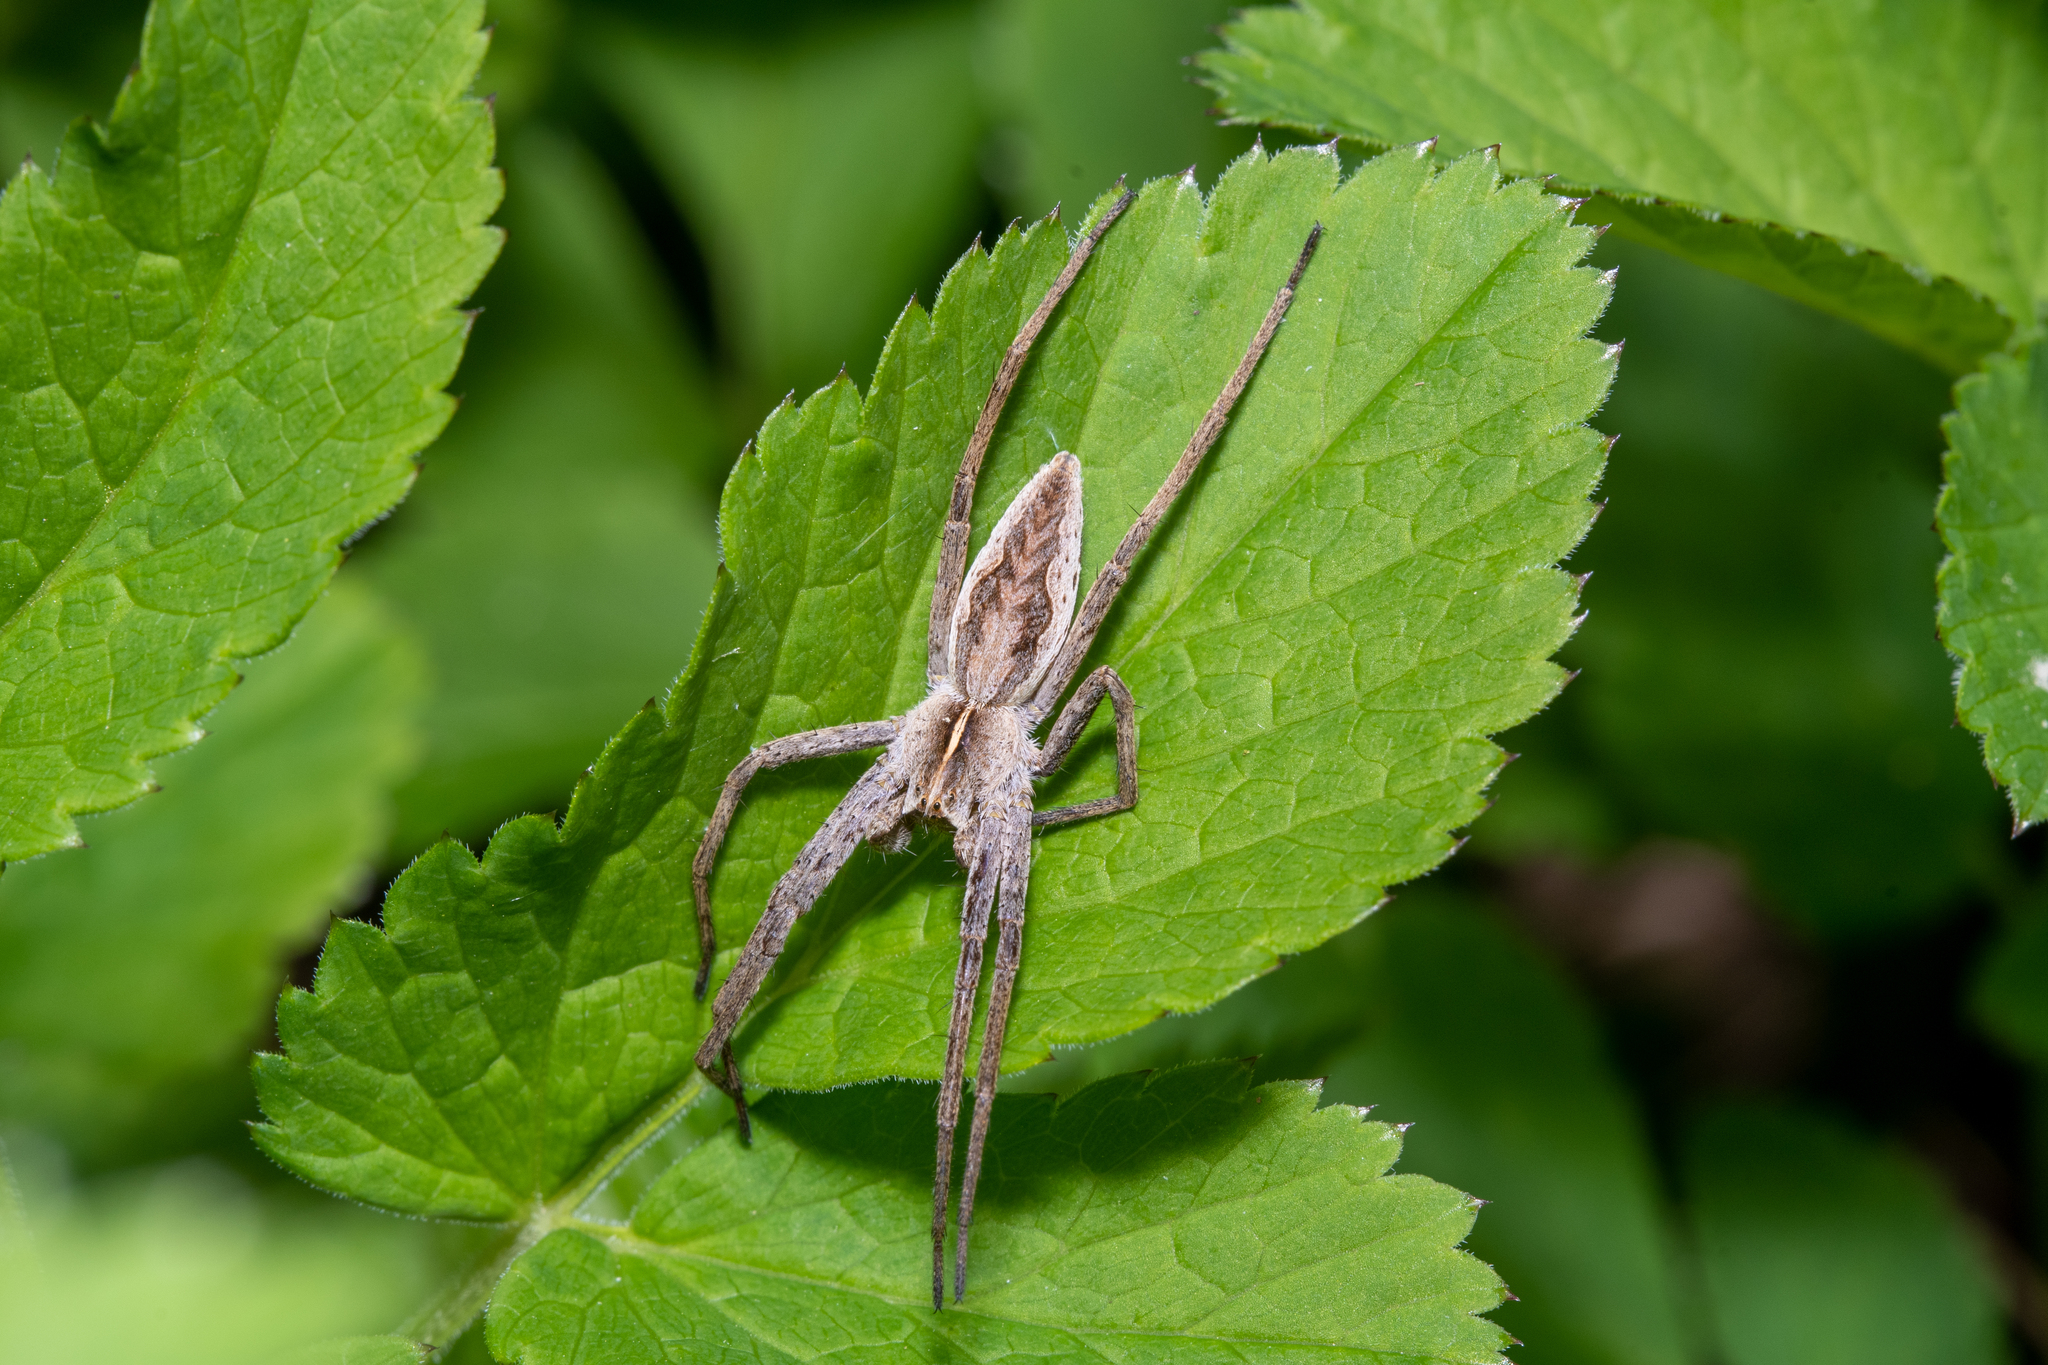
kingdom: Animalia
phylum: Arthropoda
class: Arachnida
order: Araneae
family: Pisauridae
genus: Pisaura
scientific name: Pisaura mirabilis
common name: Tent spider
